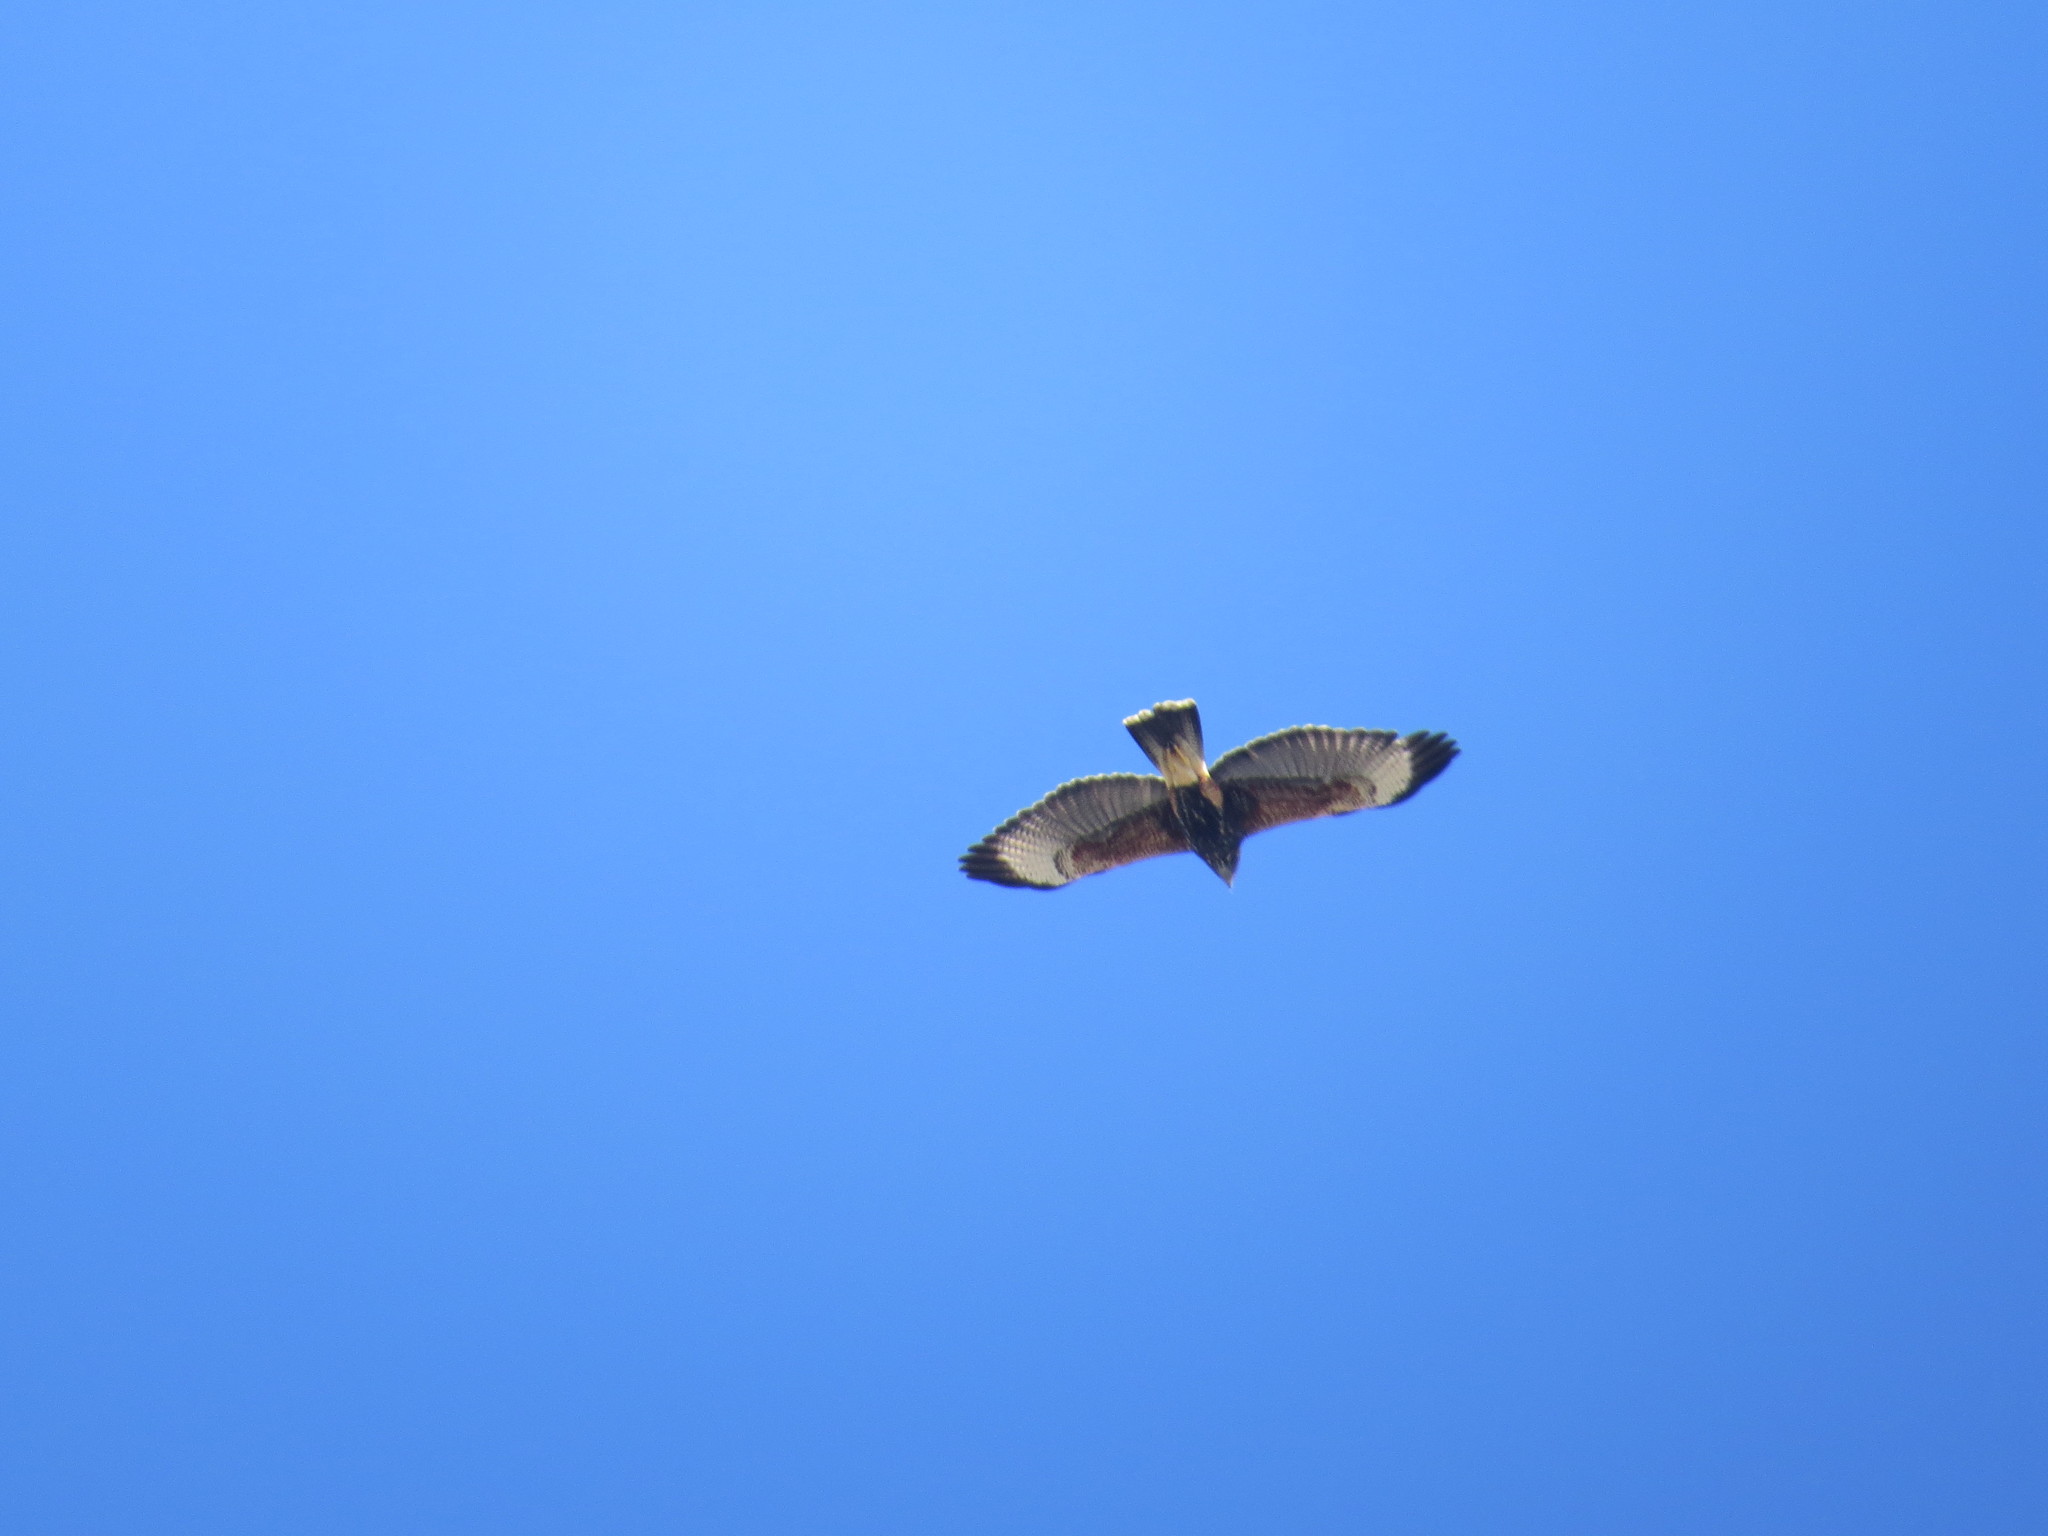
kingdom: Animalia
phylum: Chordata
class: Aves
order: Accipitriformes
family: Accipitridae
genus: Parabuteo
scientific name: Parabuteo unicinctus
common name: Harris's hawk
